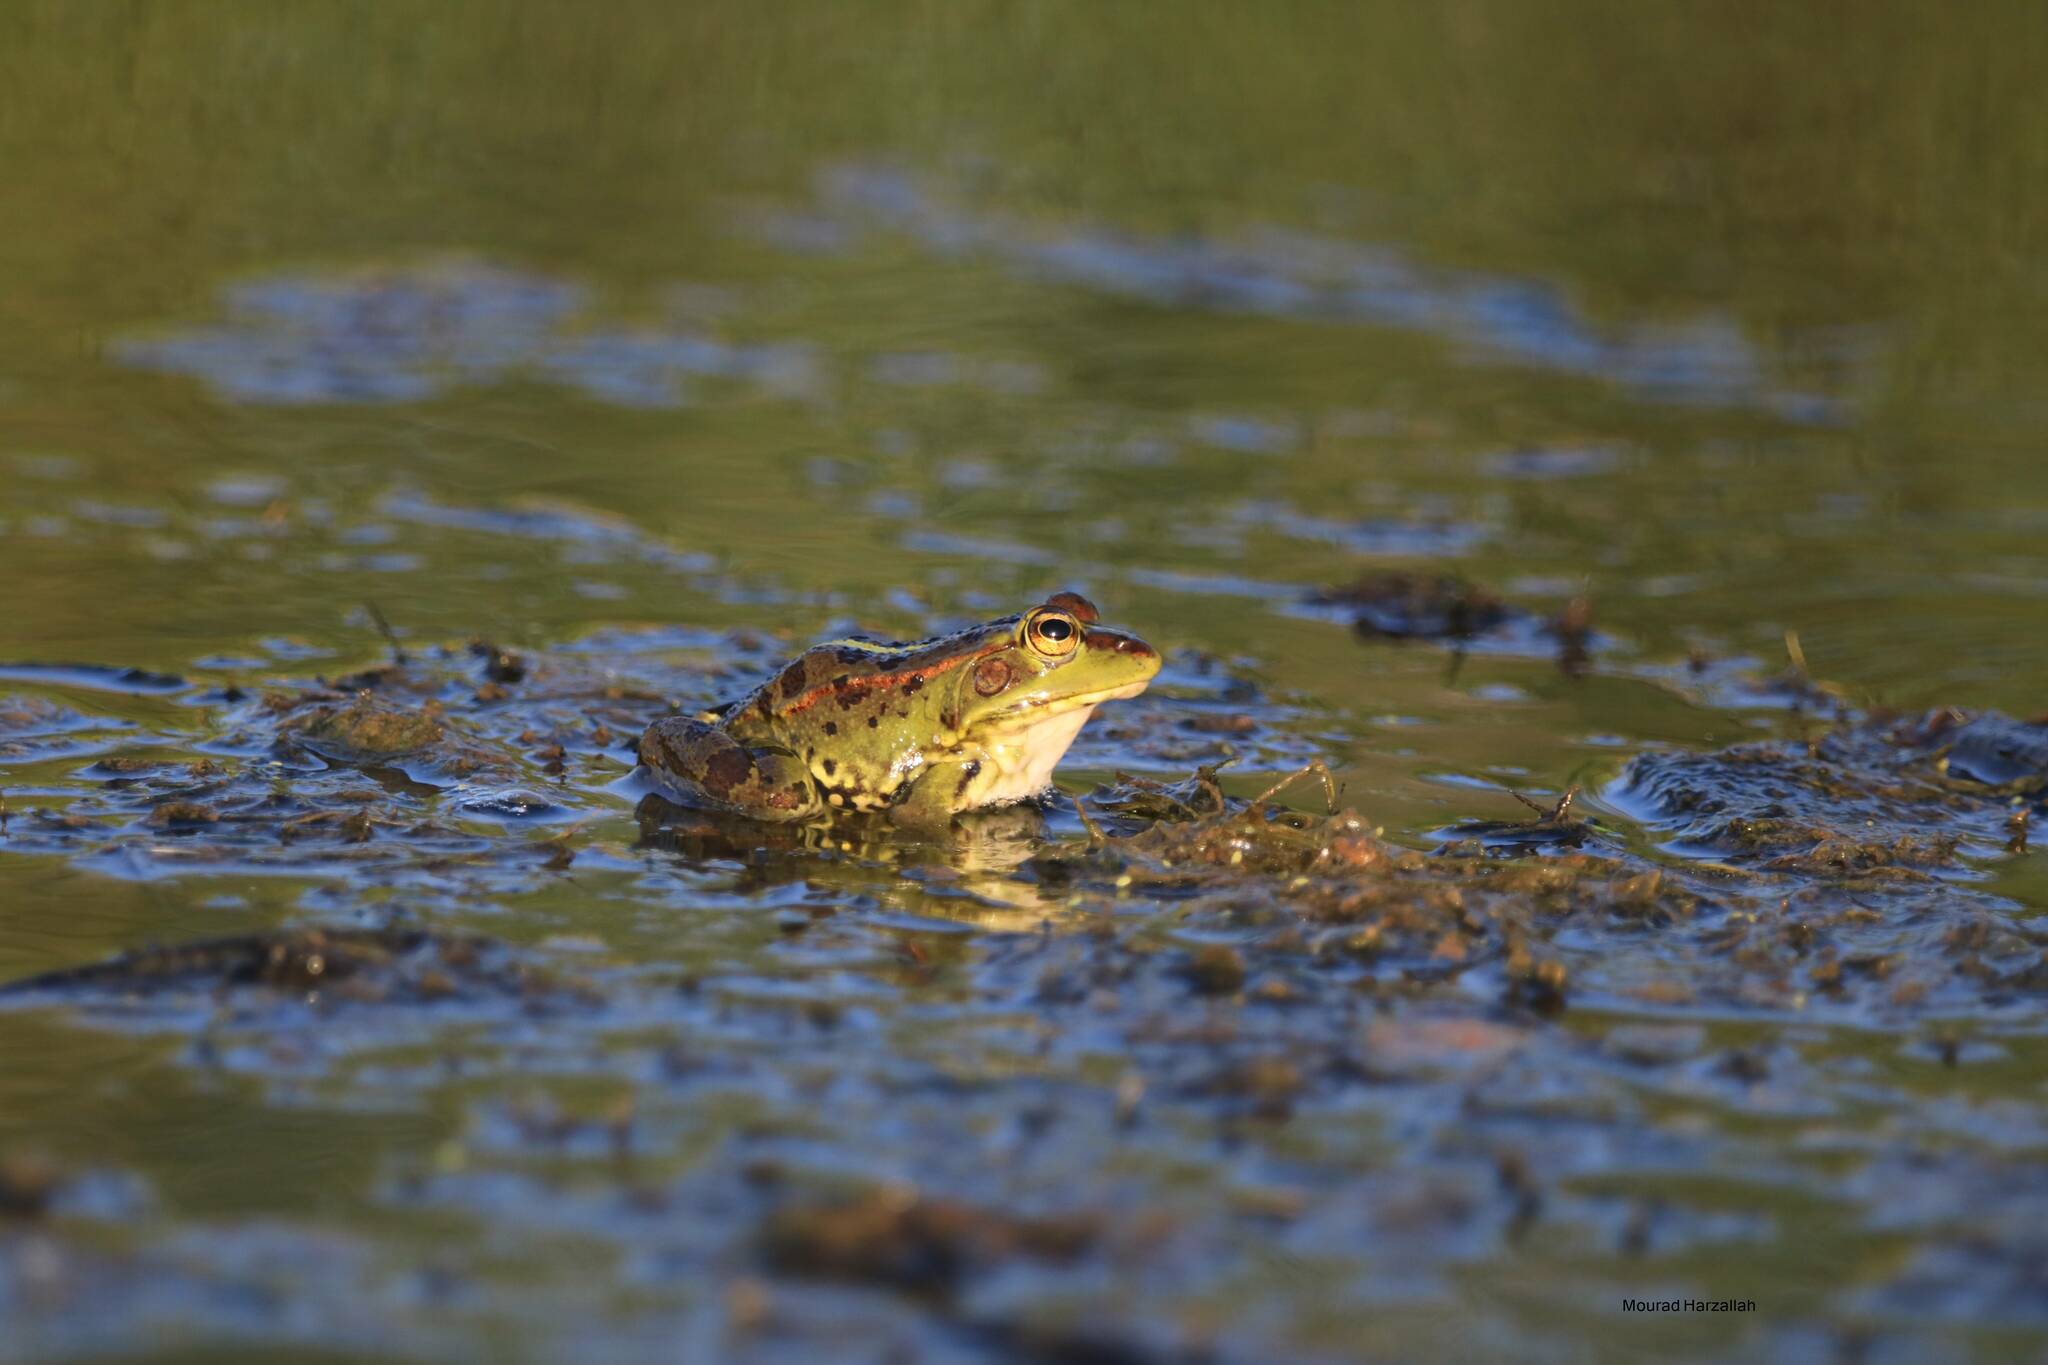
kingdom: Animalia
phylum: Chordata
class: Amphibia
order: Anura
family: Ranidae
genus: Pelophylax
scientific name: Pelophylax saharicus
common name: Sahara frog
